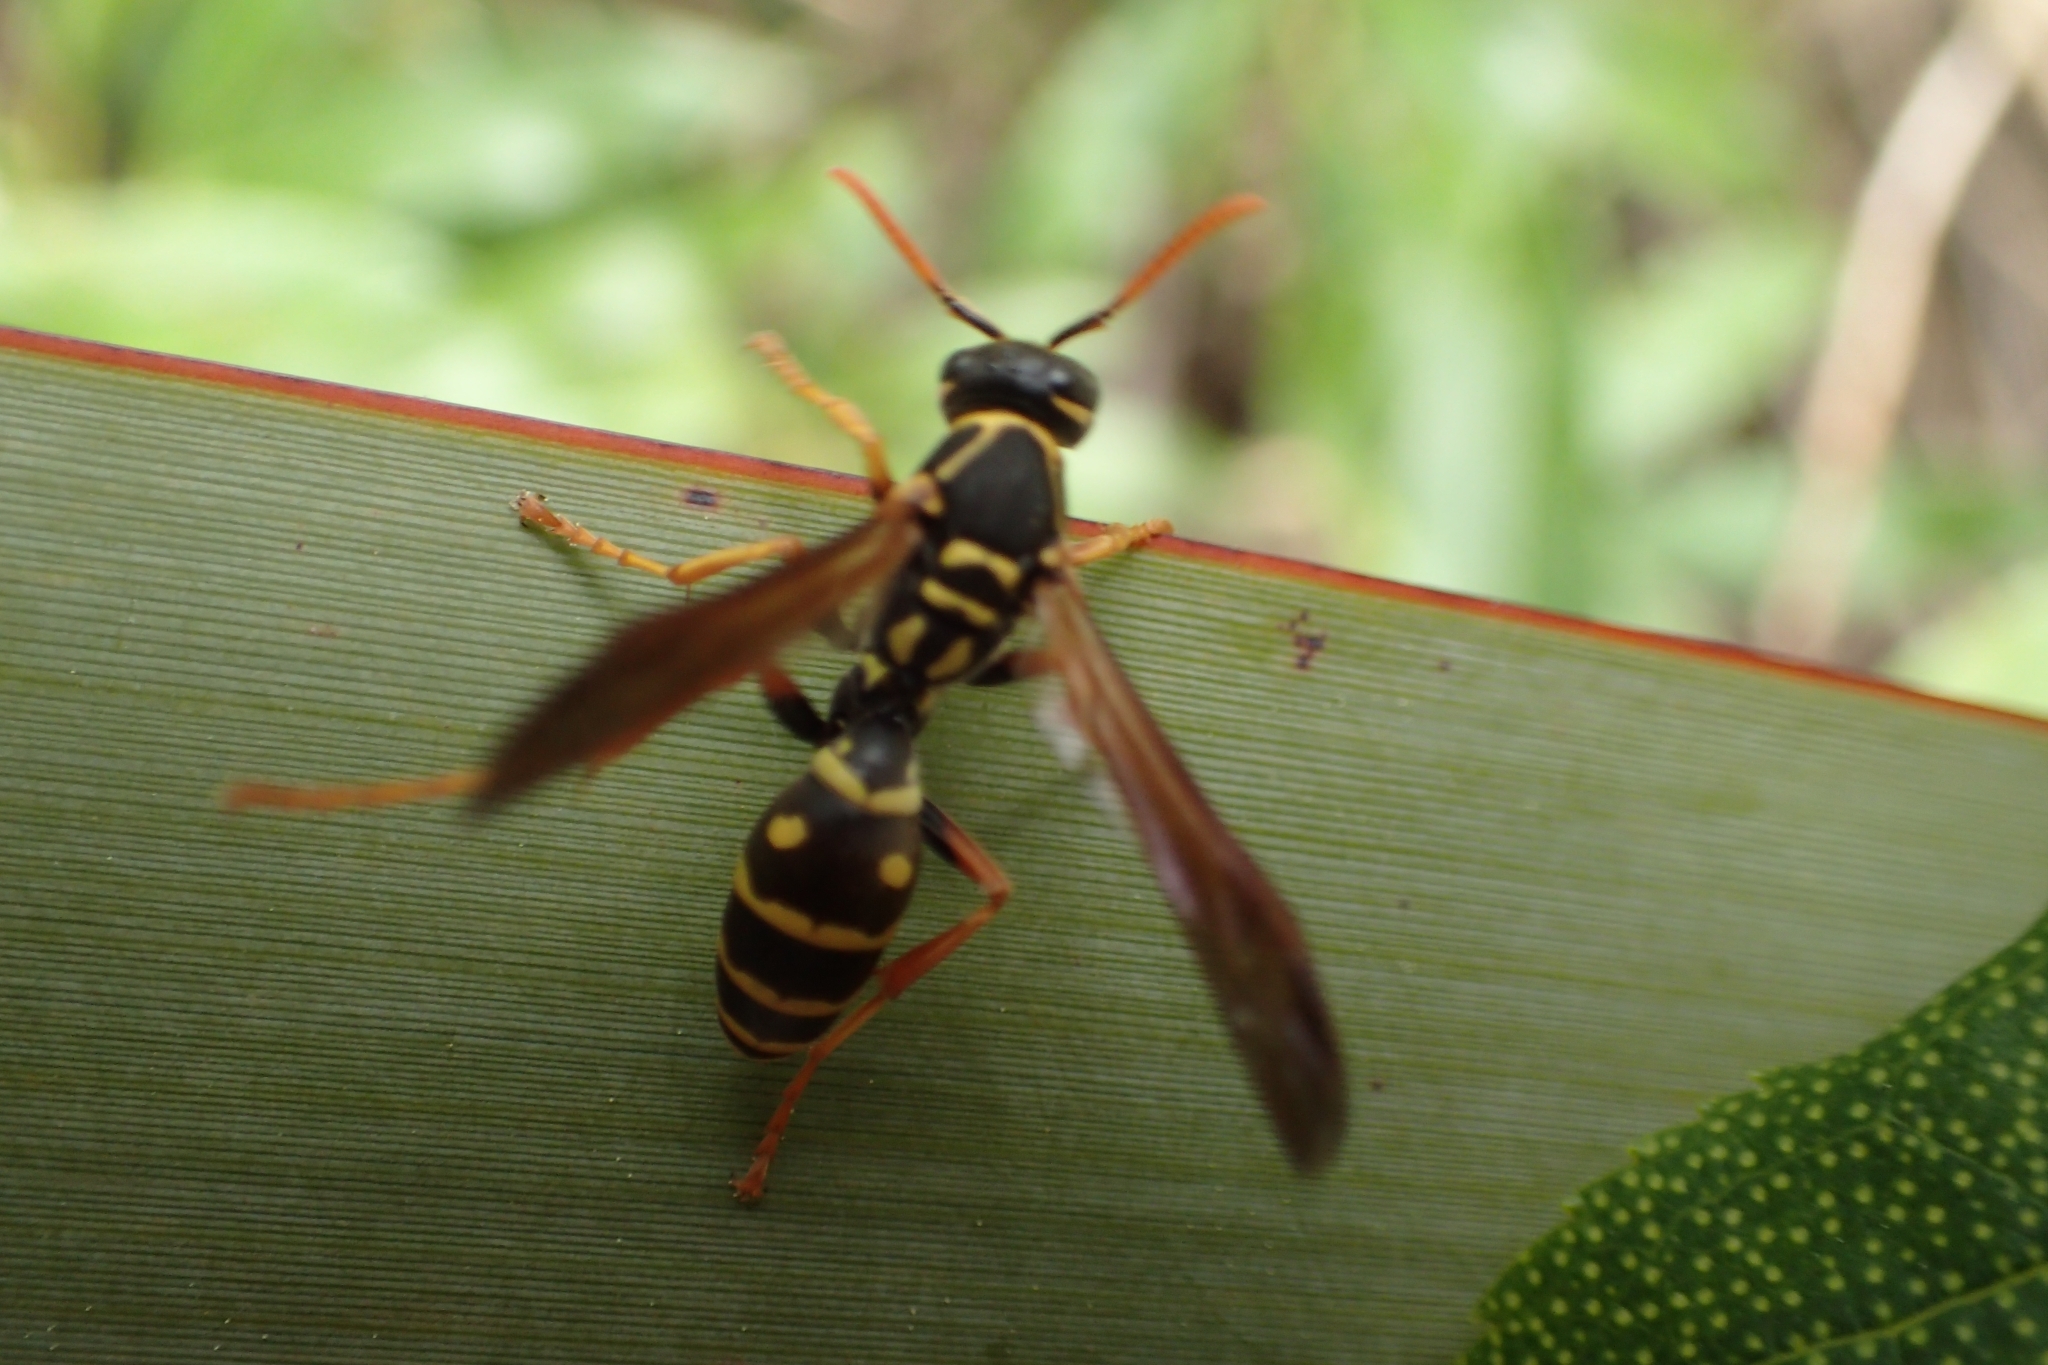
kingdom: Animalia
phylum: Arthropoda
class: Insecta
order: Hymenoptera
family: Eumenidae
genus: Polistes
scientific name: Polistes chinensis
